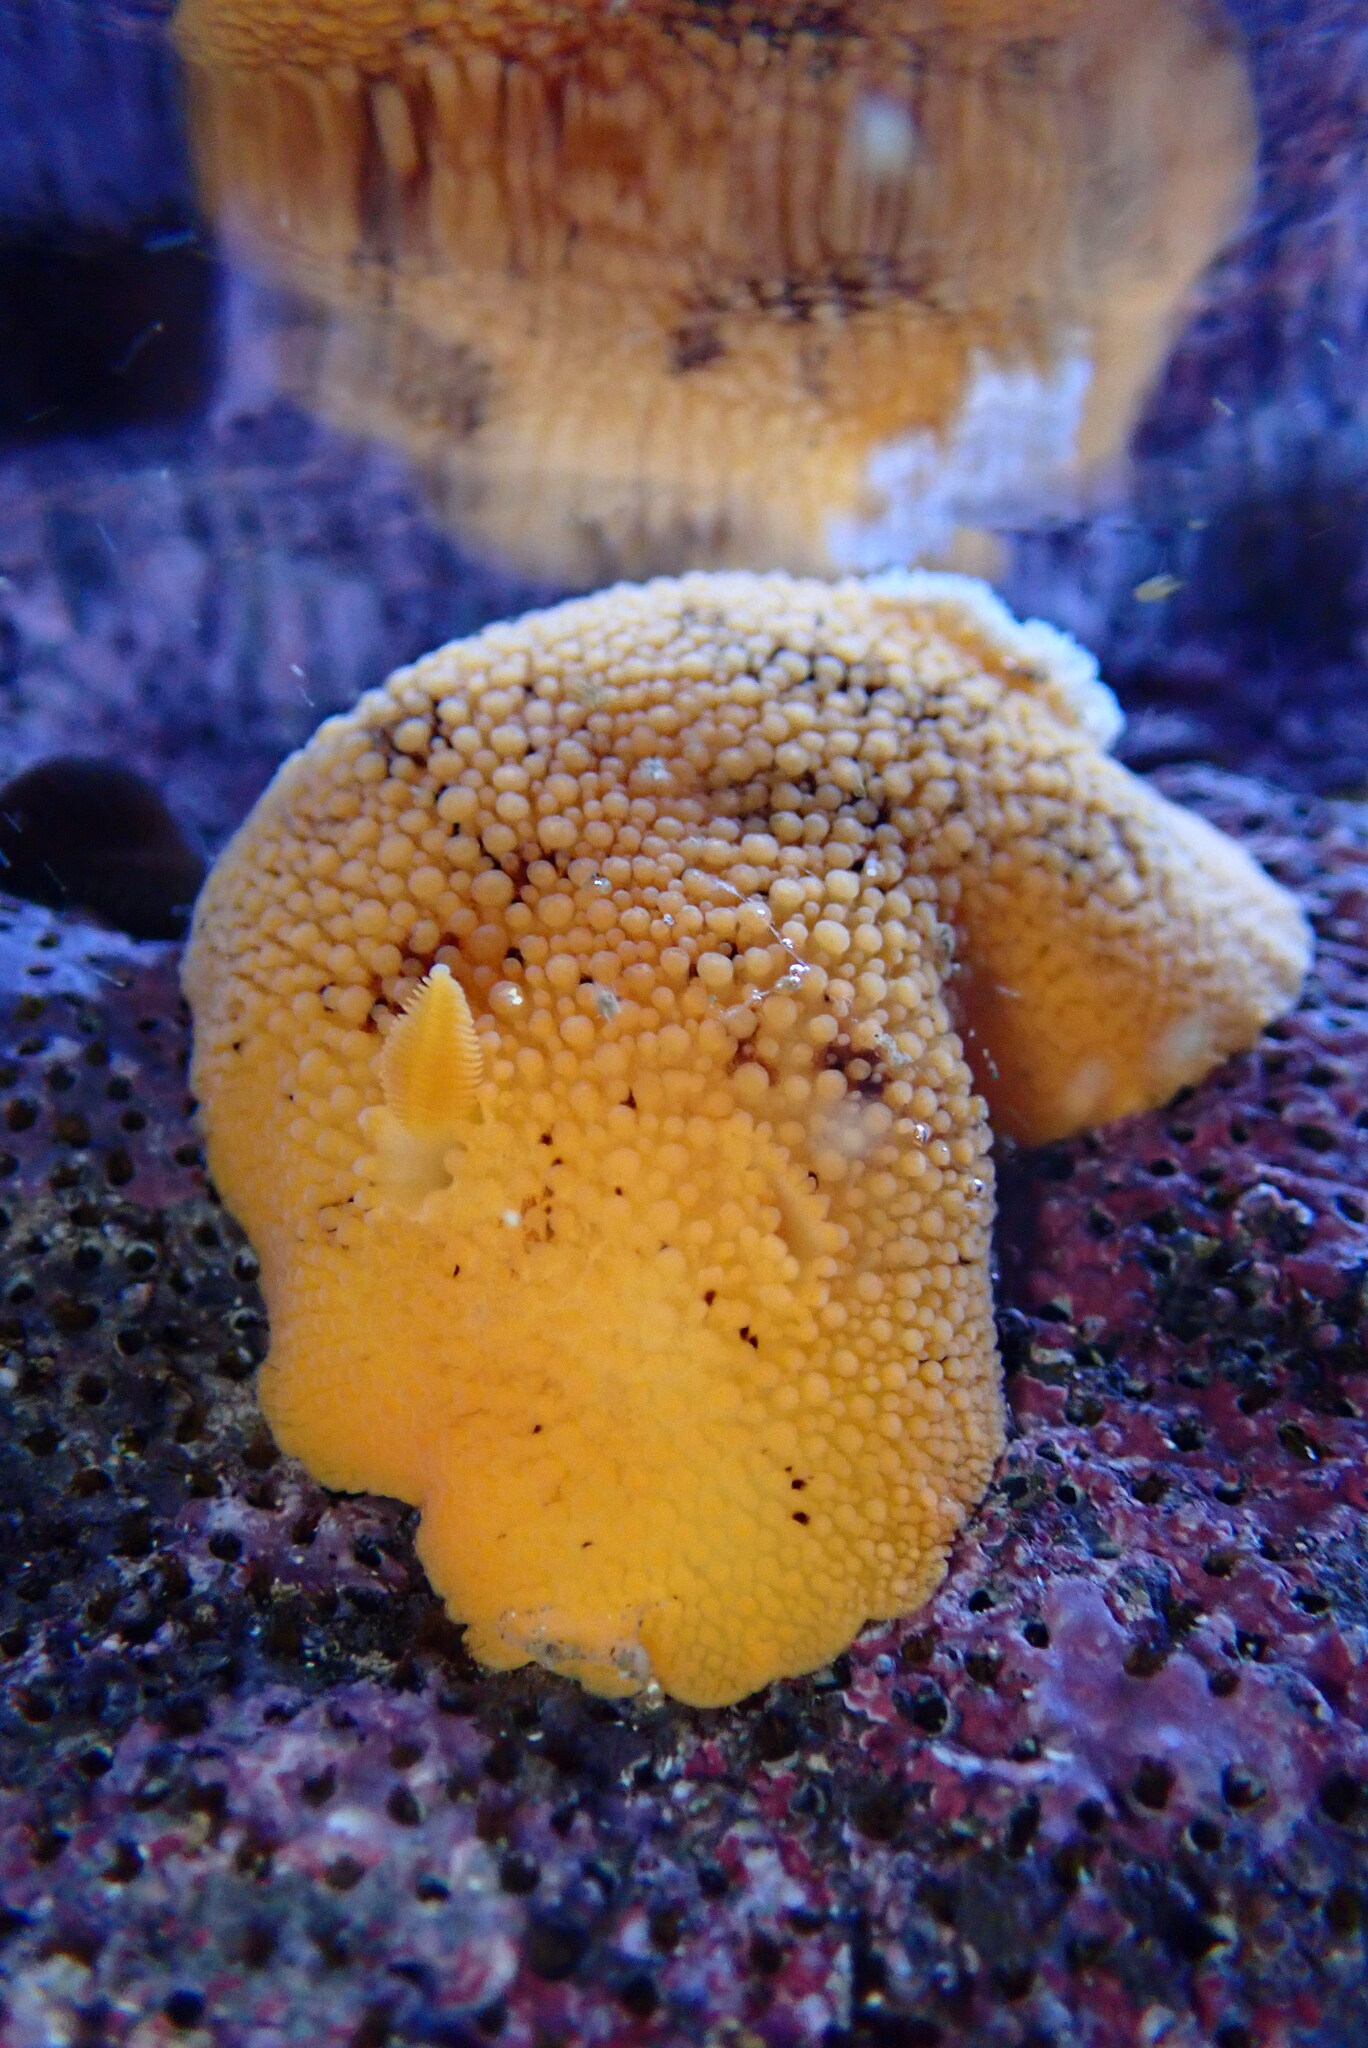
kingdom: Animalia
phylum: Mollusca
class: Gastropoda
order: Nudibranchia
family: Discodorididae
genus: Peltodoris
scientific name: Peltodoris nobilis
